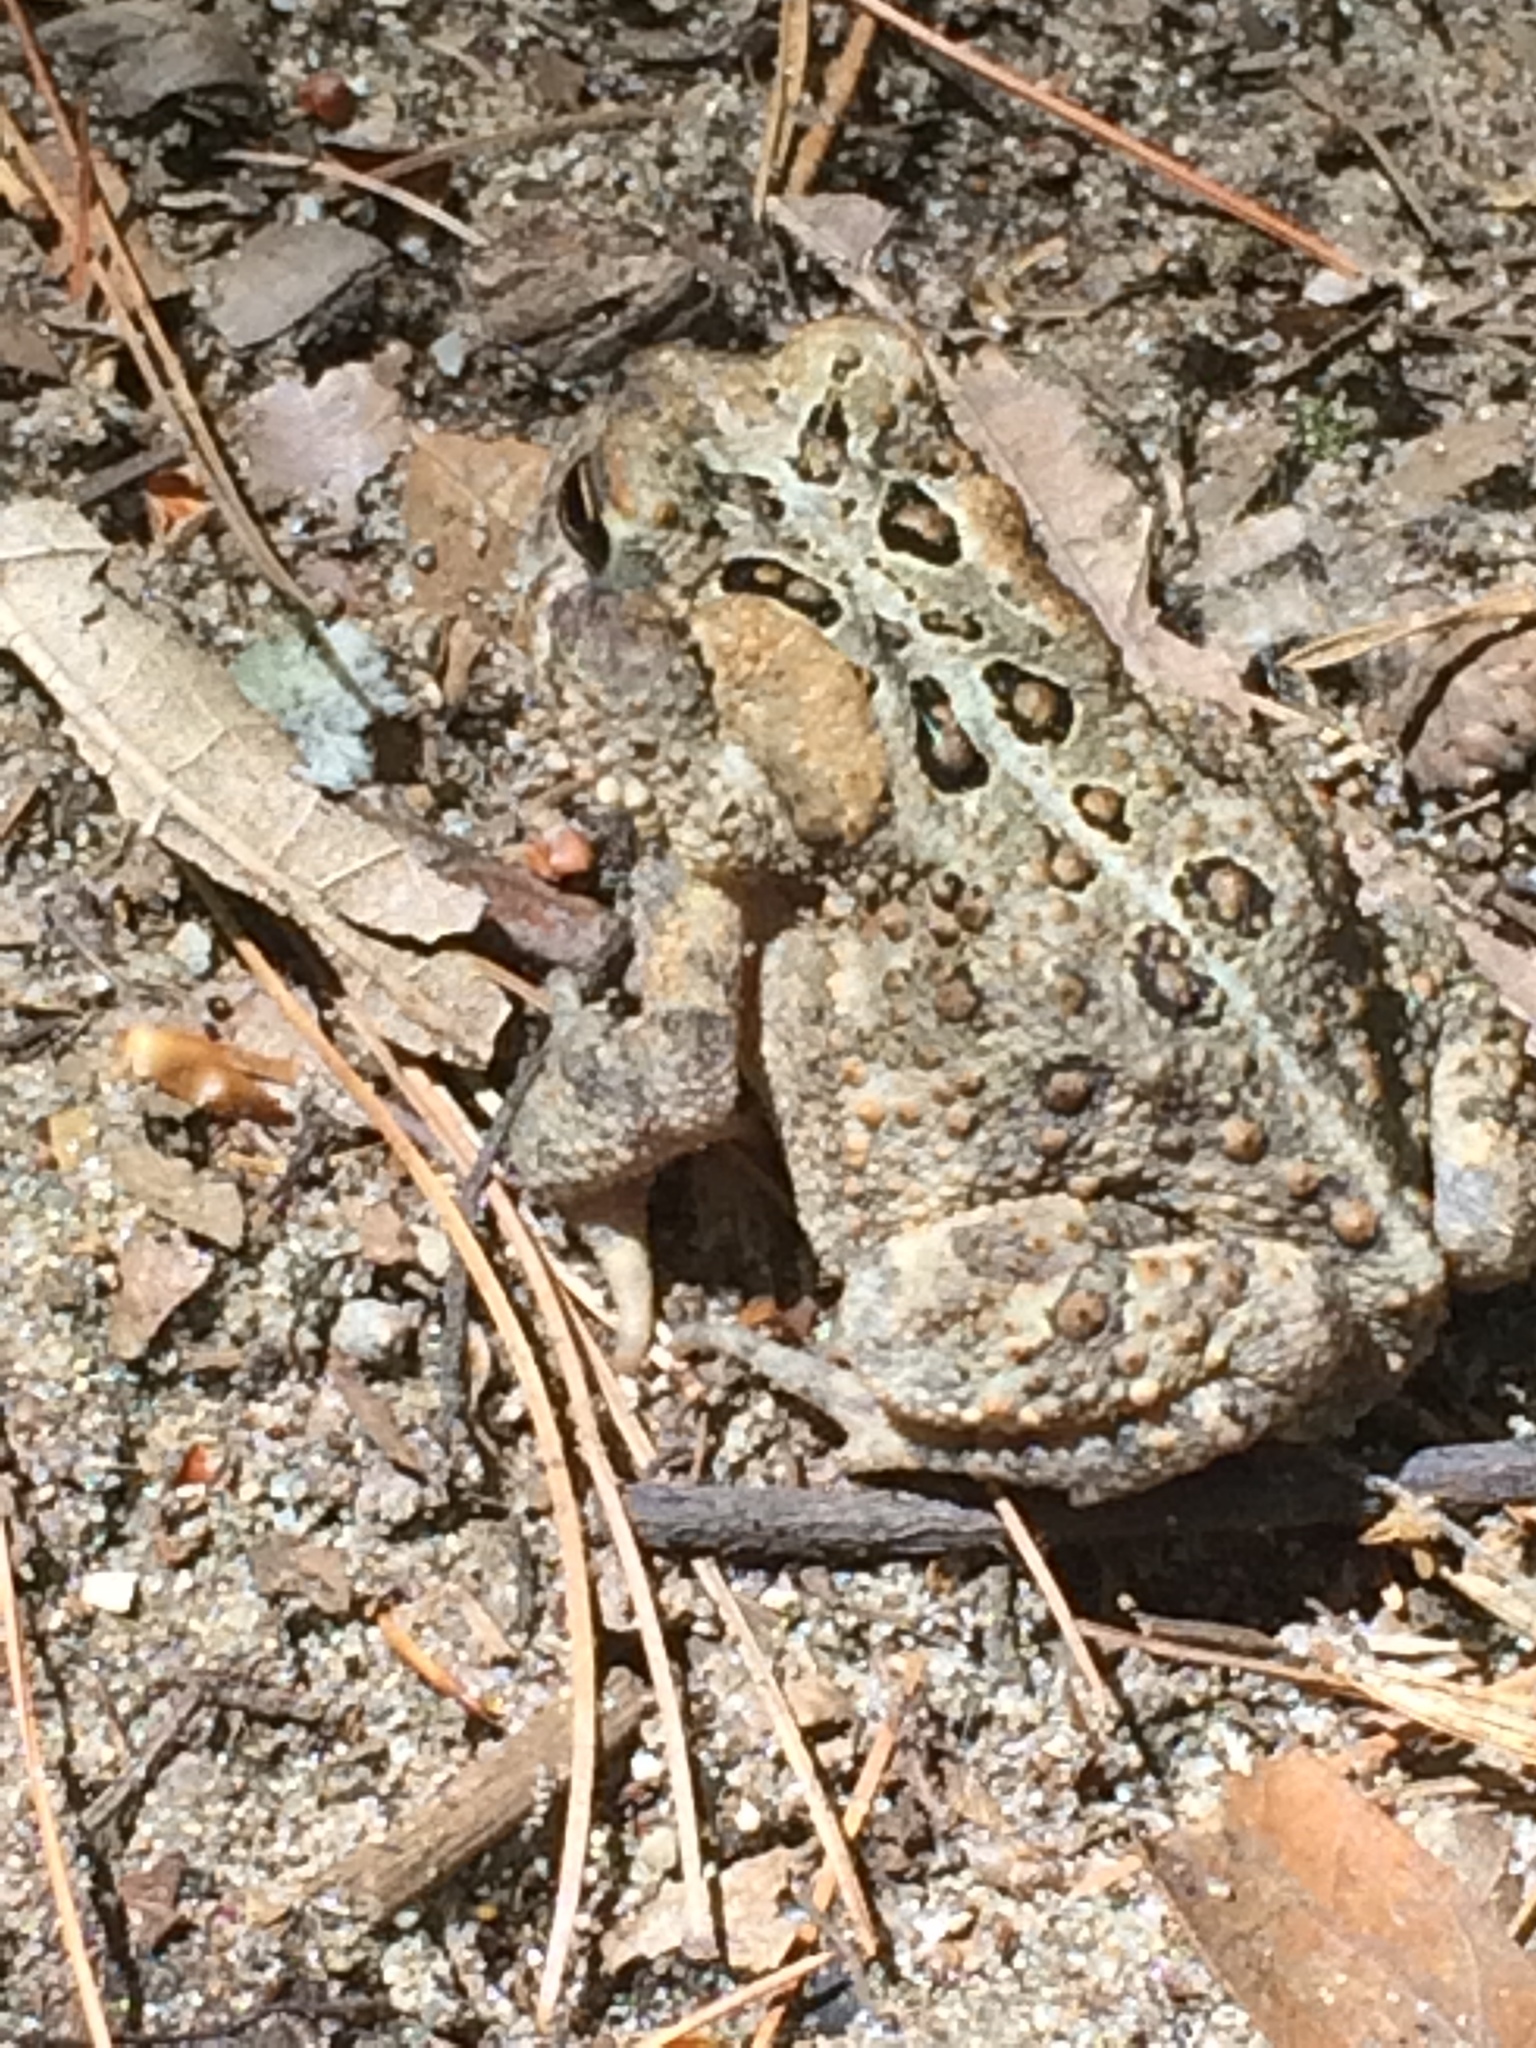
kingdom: Animalia
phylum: Chordata
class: Amphibia
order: Anura
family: Bufonidae
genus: Anaxyrus
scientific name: Anaxyrus americanus
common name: American toad
